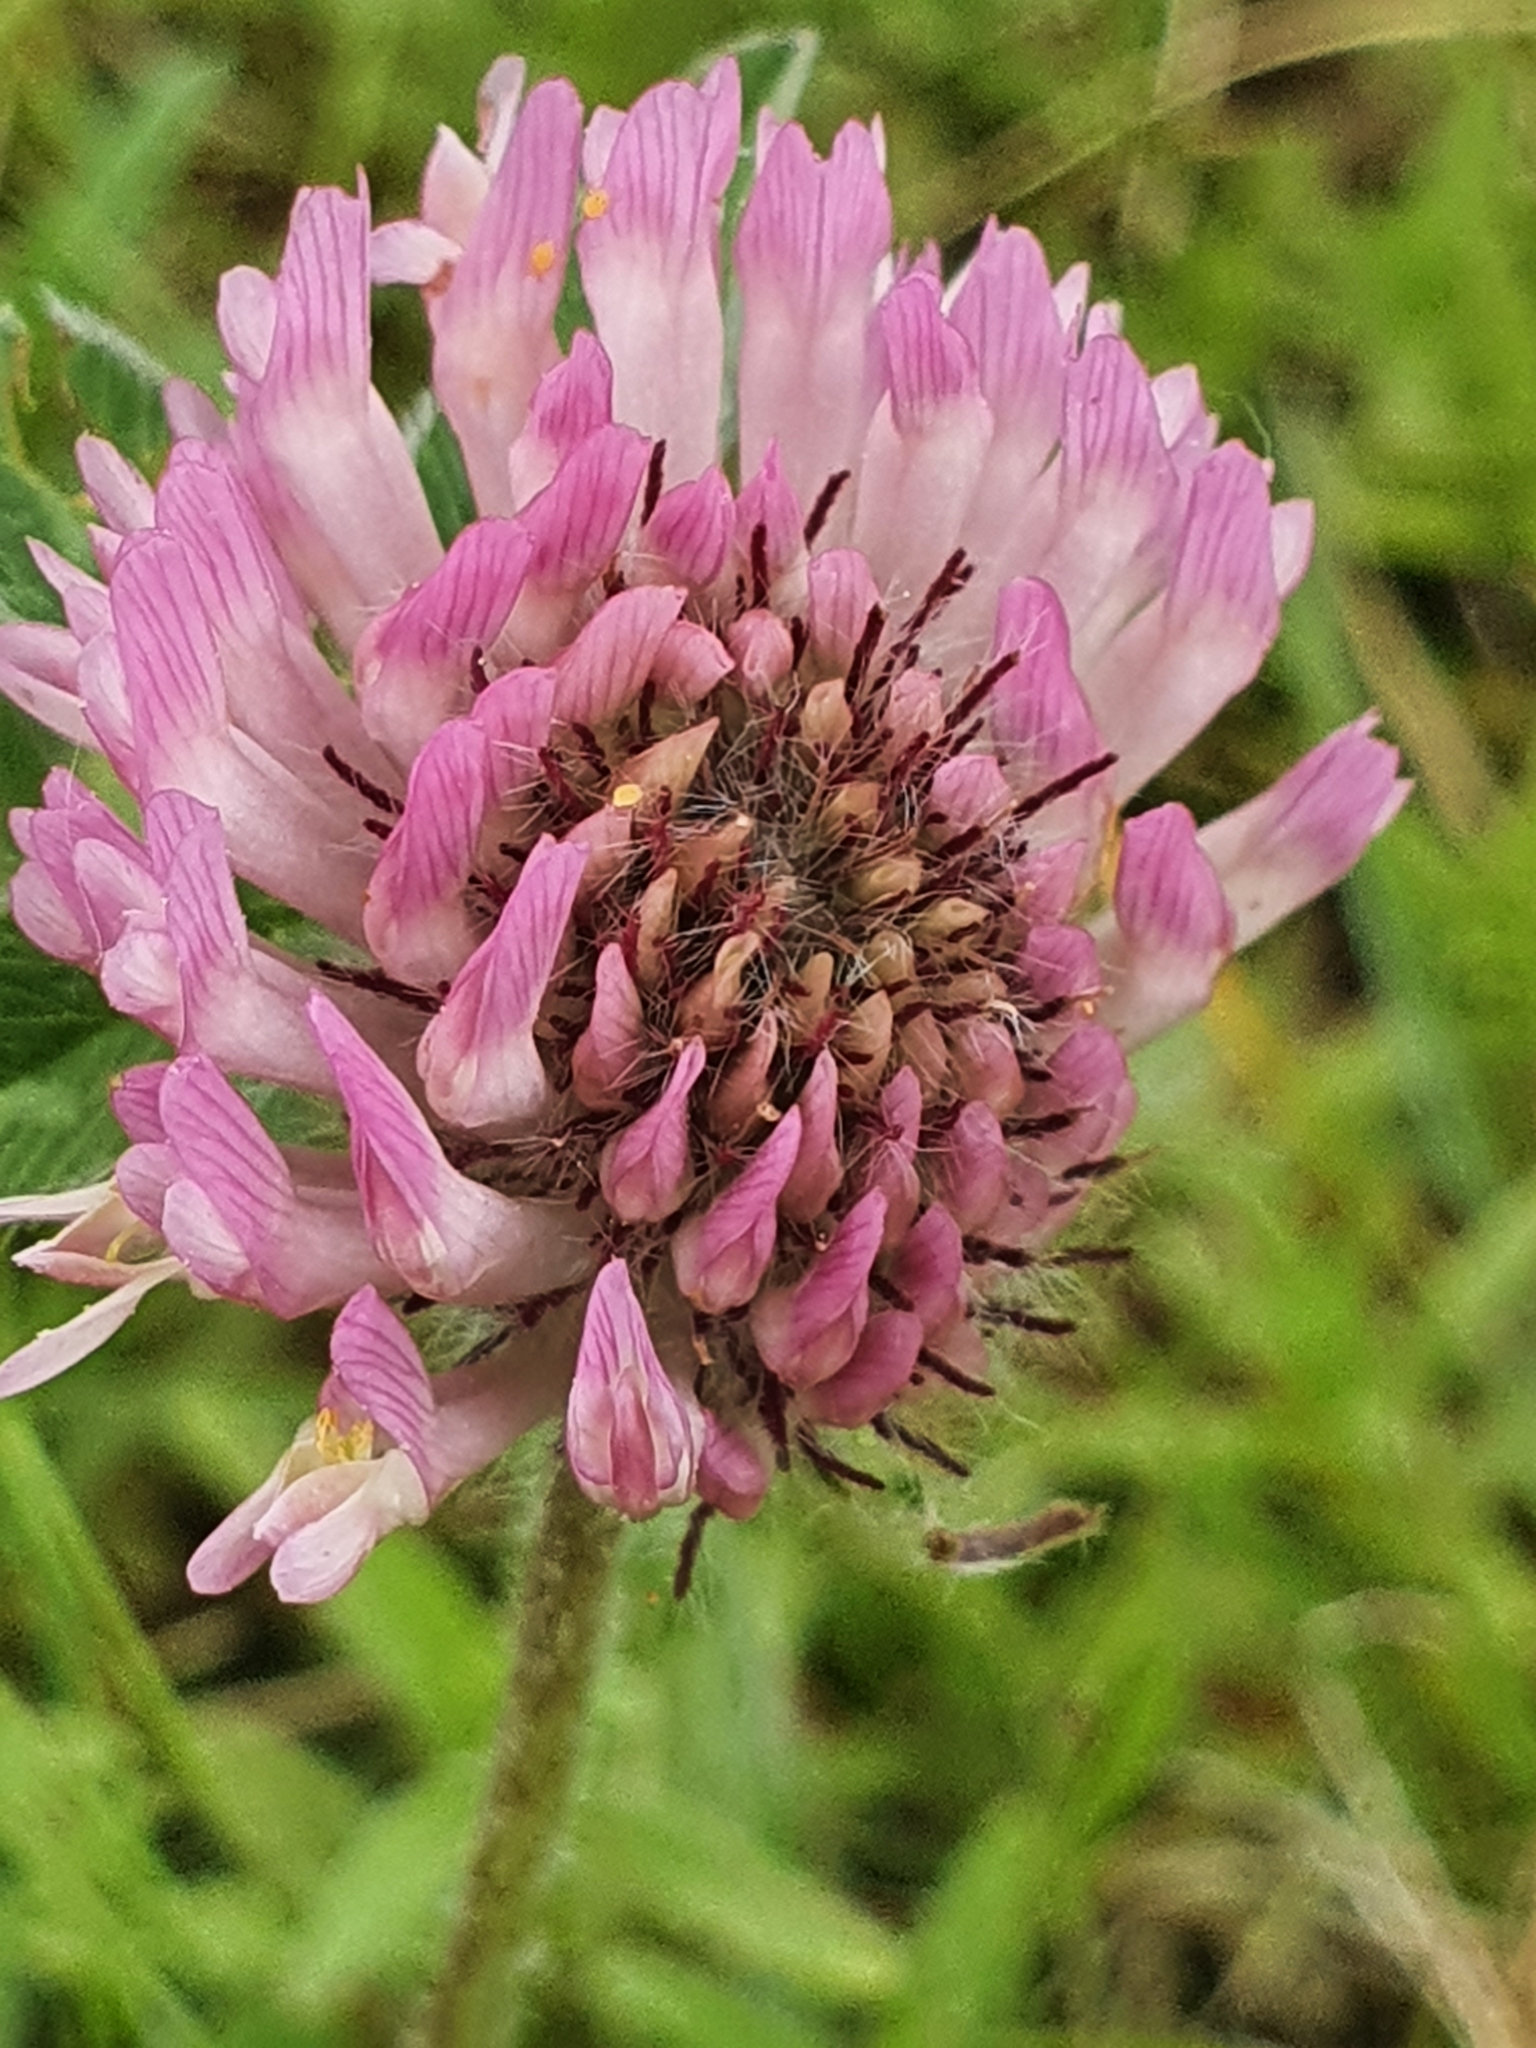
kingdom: Plantae
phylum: Tracheophyta
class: Magnoliopsida
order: Fabales
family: Fabaceae
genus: Trifolium
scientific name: Trifolium pratense
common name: Red clover
